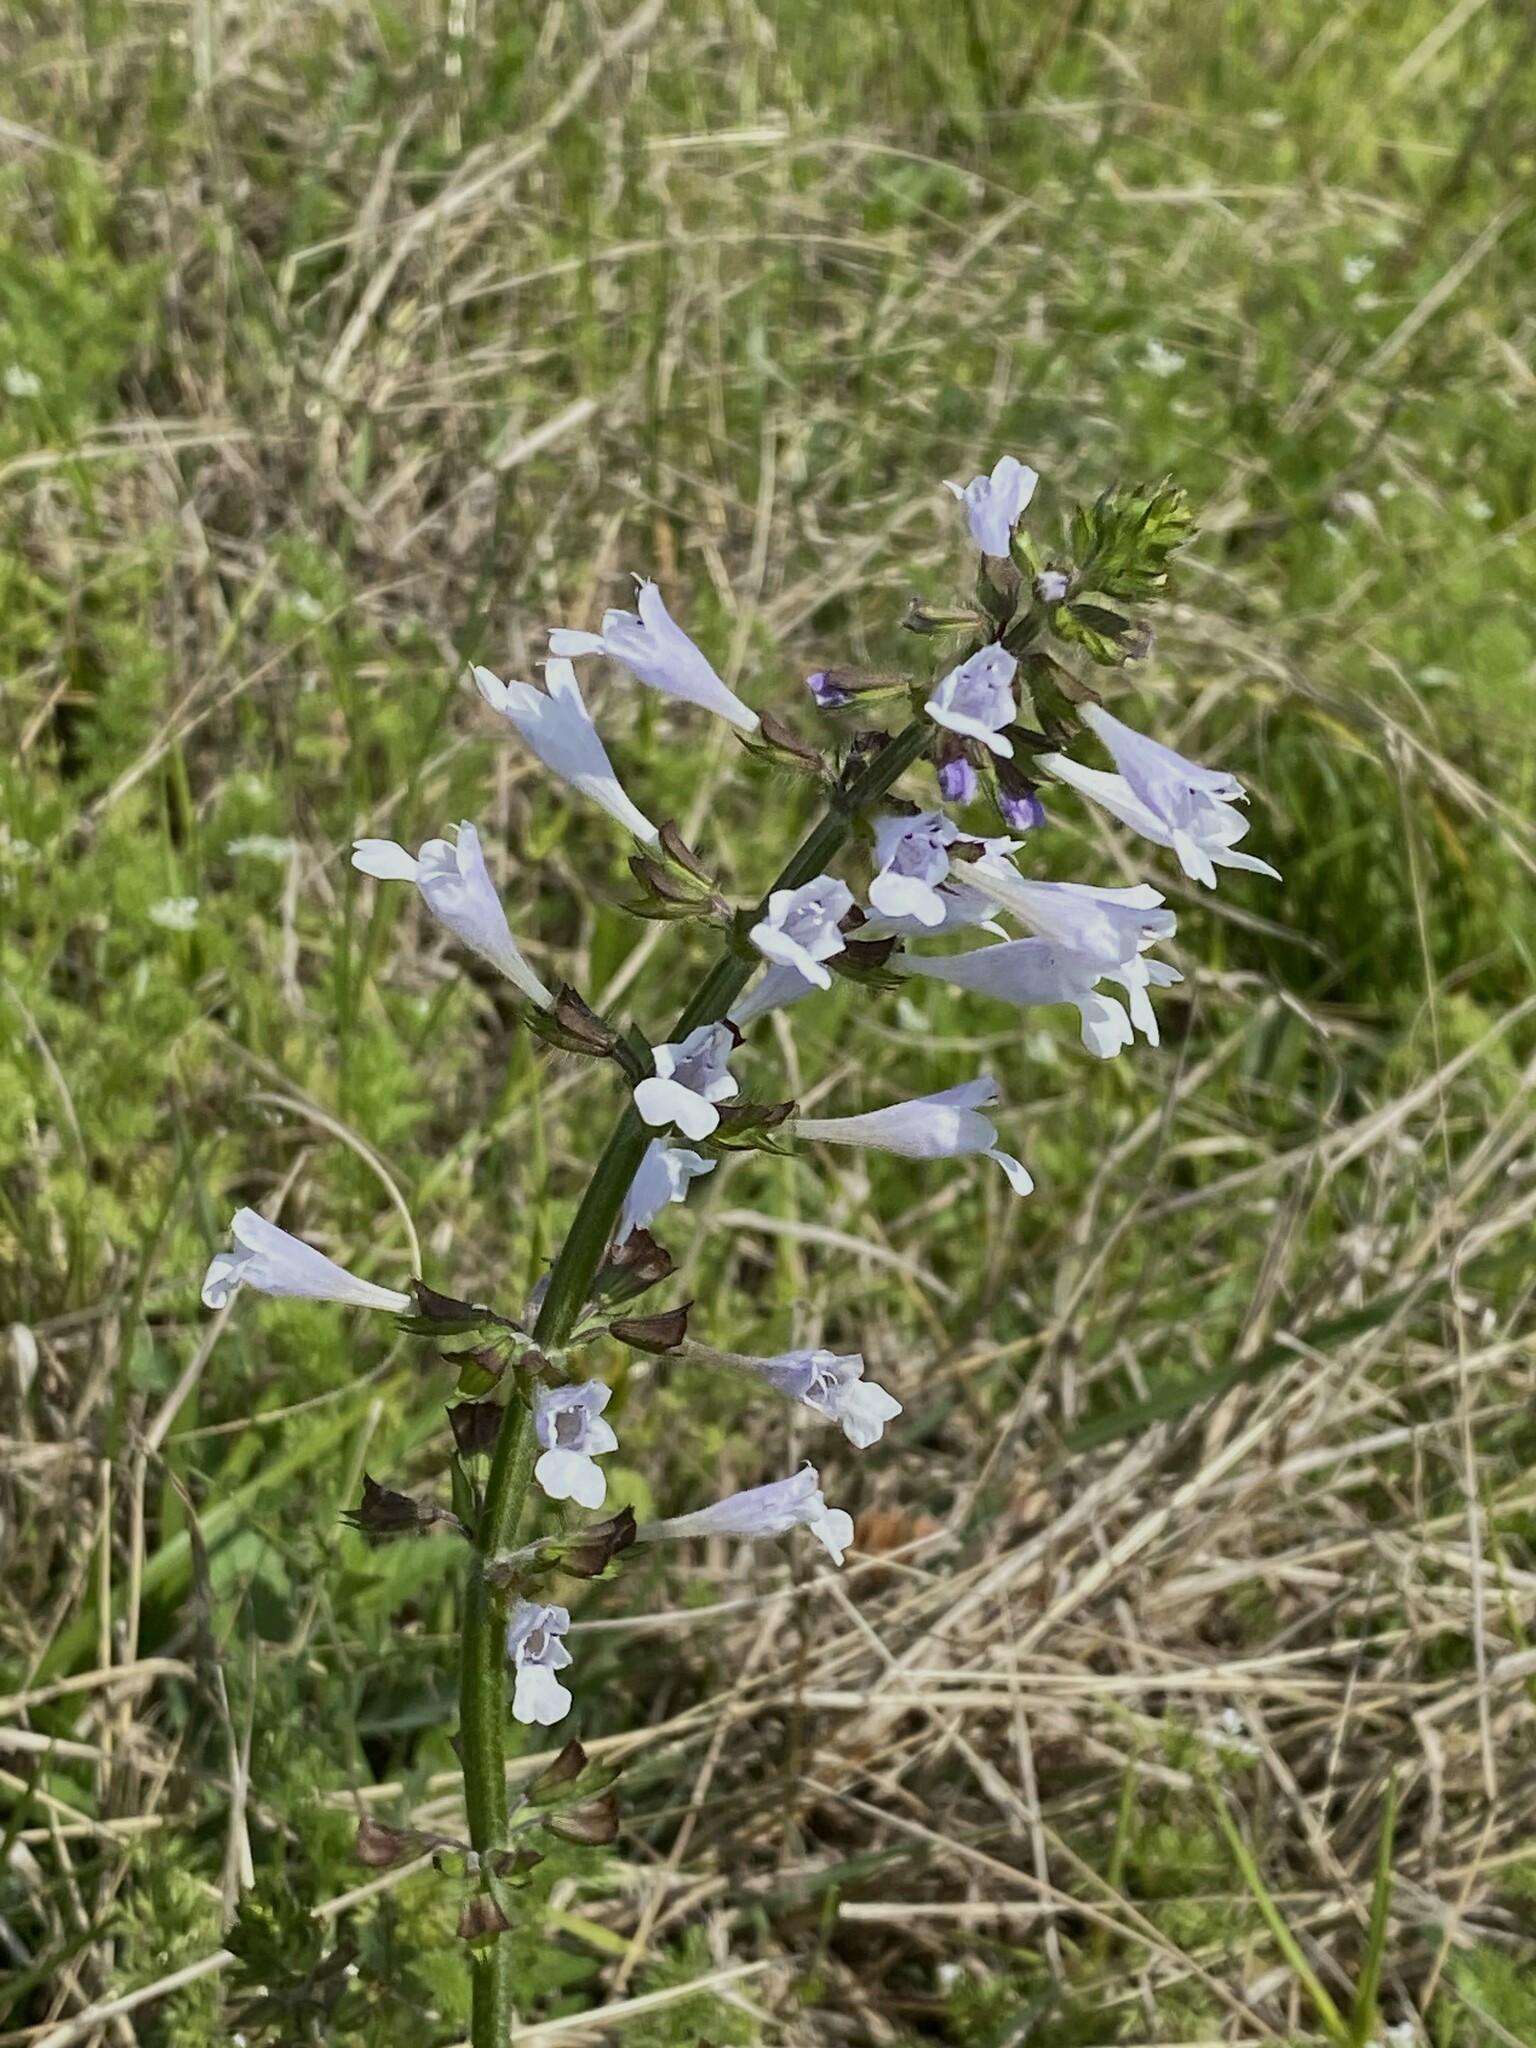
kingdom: Plantae
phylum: Tracheophyta
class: Magnoliopsida
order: Lamiales
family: Lamiaceae
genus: Salvia
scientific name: Salvia lyrata
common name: Cancerweed
